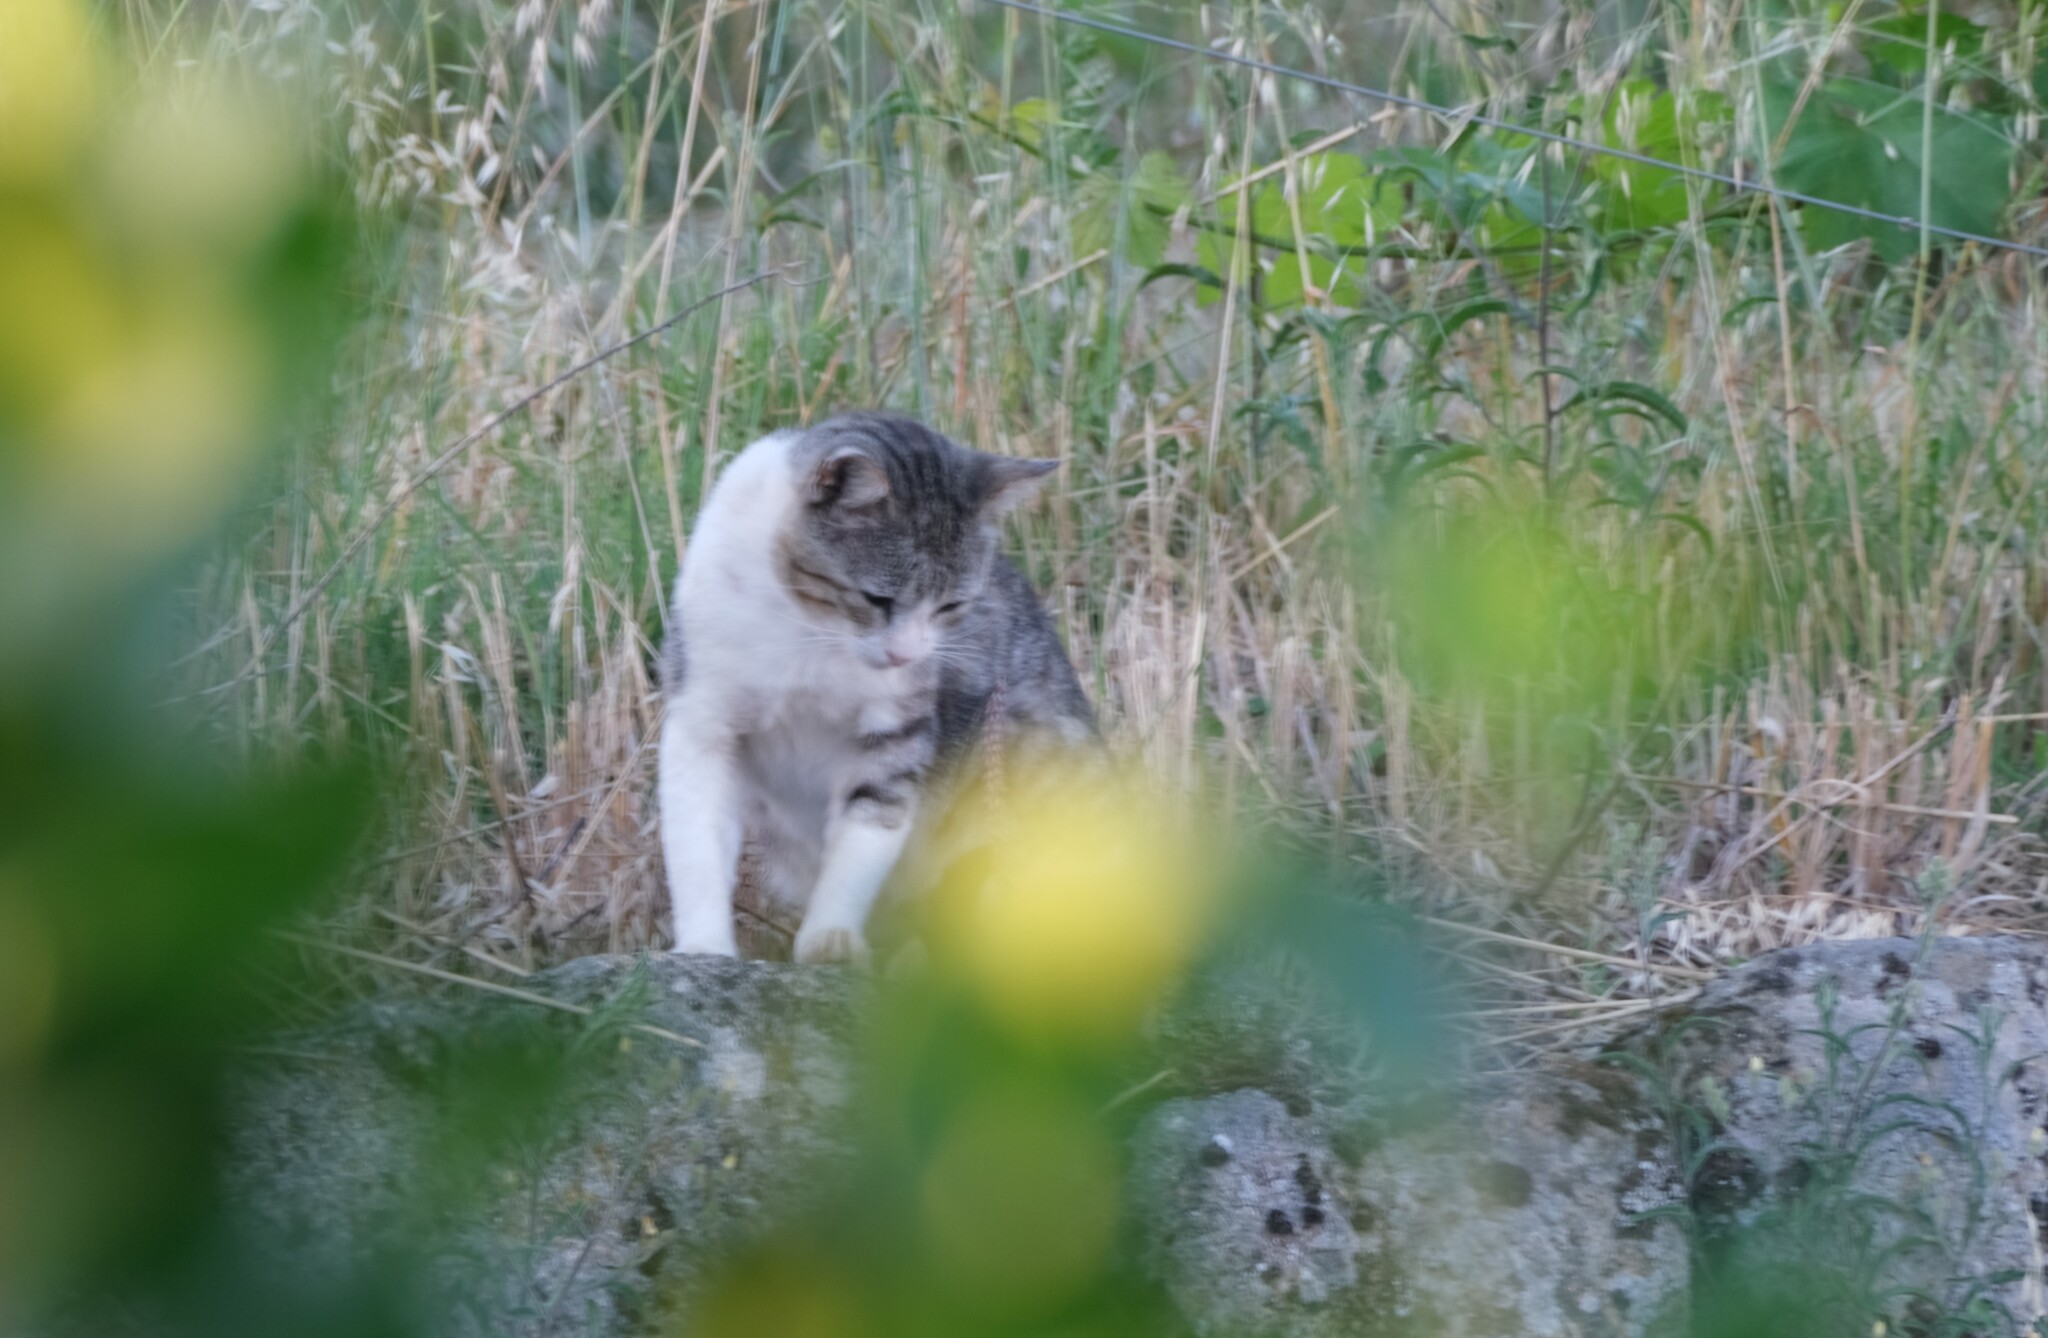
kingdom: Animalia
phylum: Chordata
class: Mammalia
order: Carnivora
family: Felidae
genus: Felis
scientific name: Felis catus
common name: Domestic cat
